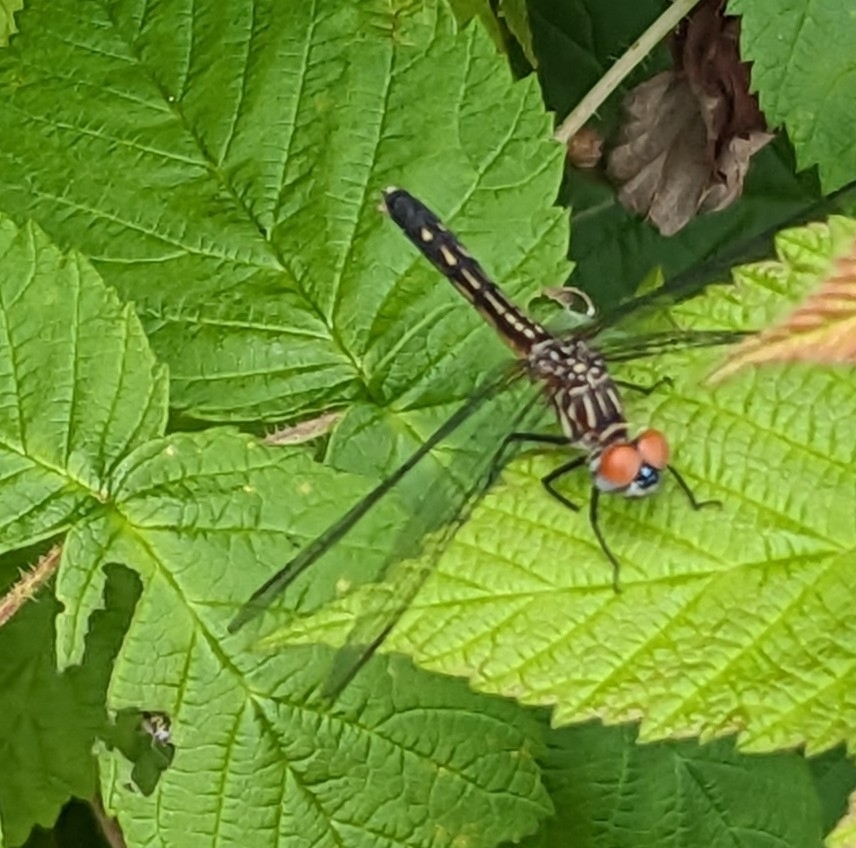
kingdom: Animalia
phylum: Arthropoda
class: Insecta
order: Odonata
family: Libellulidae
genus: Pachydiplax
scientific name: Pachydiplax longipennis
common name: Blue dasher
